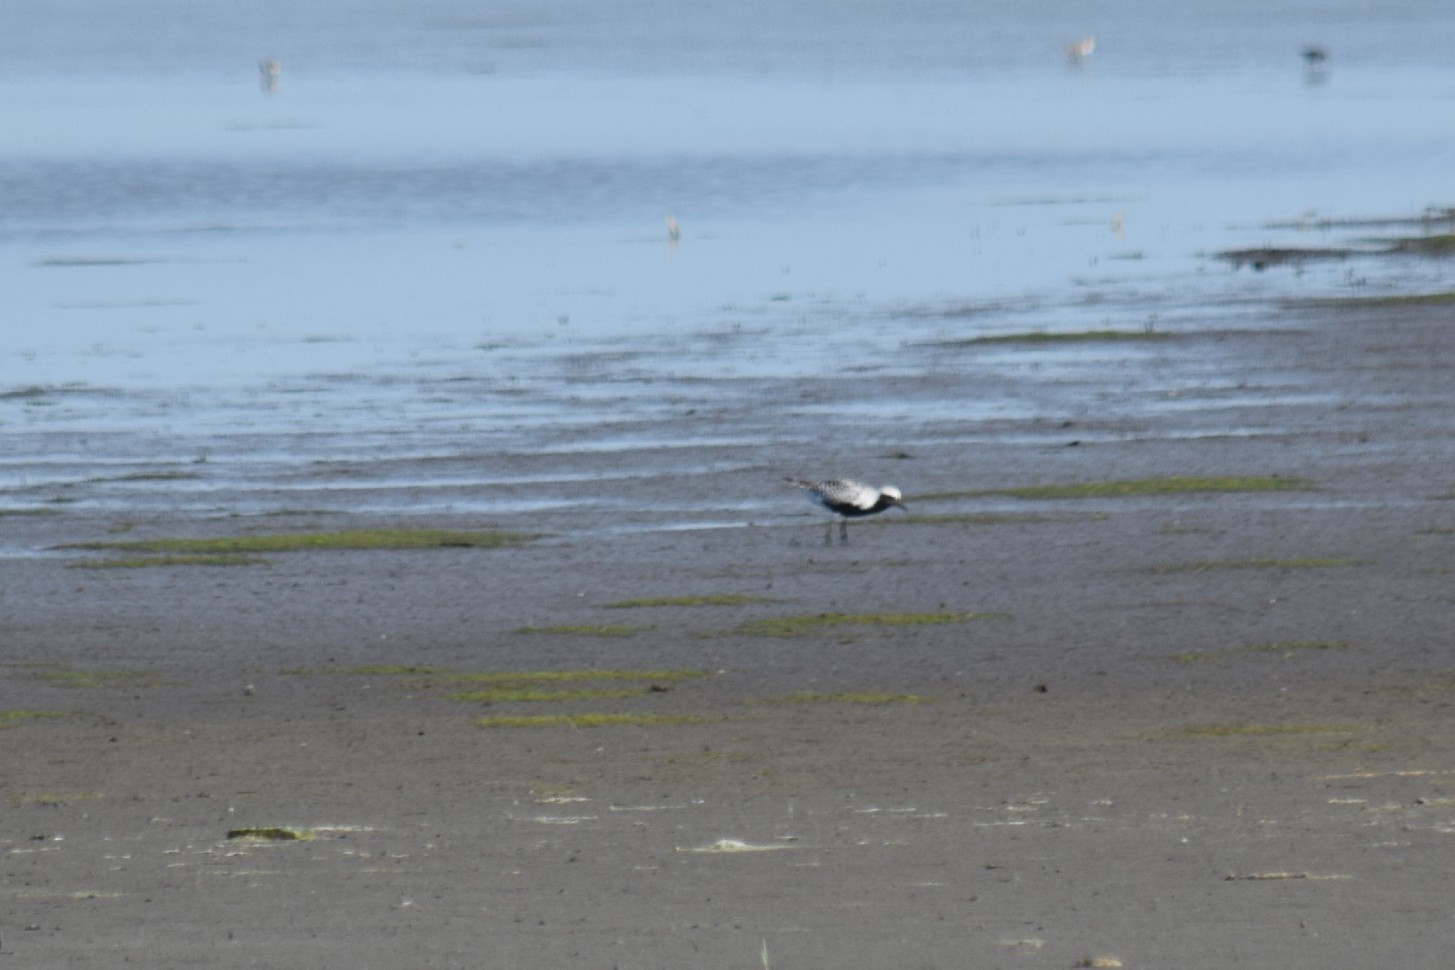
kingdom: Animalia
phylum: Chordata
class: Aves
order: Charadriiformes
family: Charadriidae
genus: Pluvialis
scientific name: Pluvialis squatarola
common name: Grey plover
